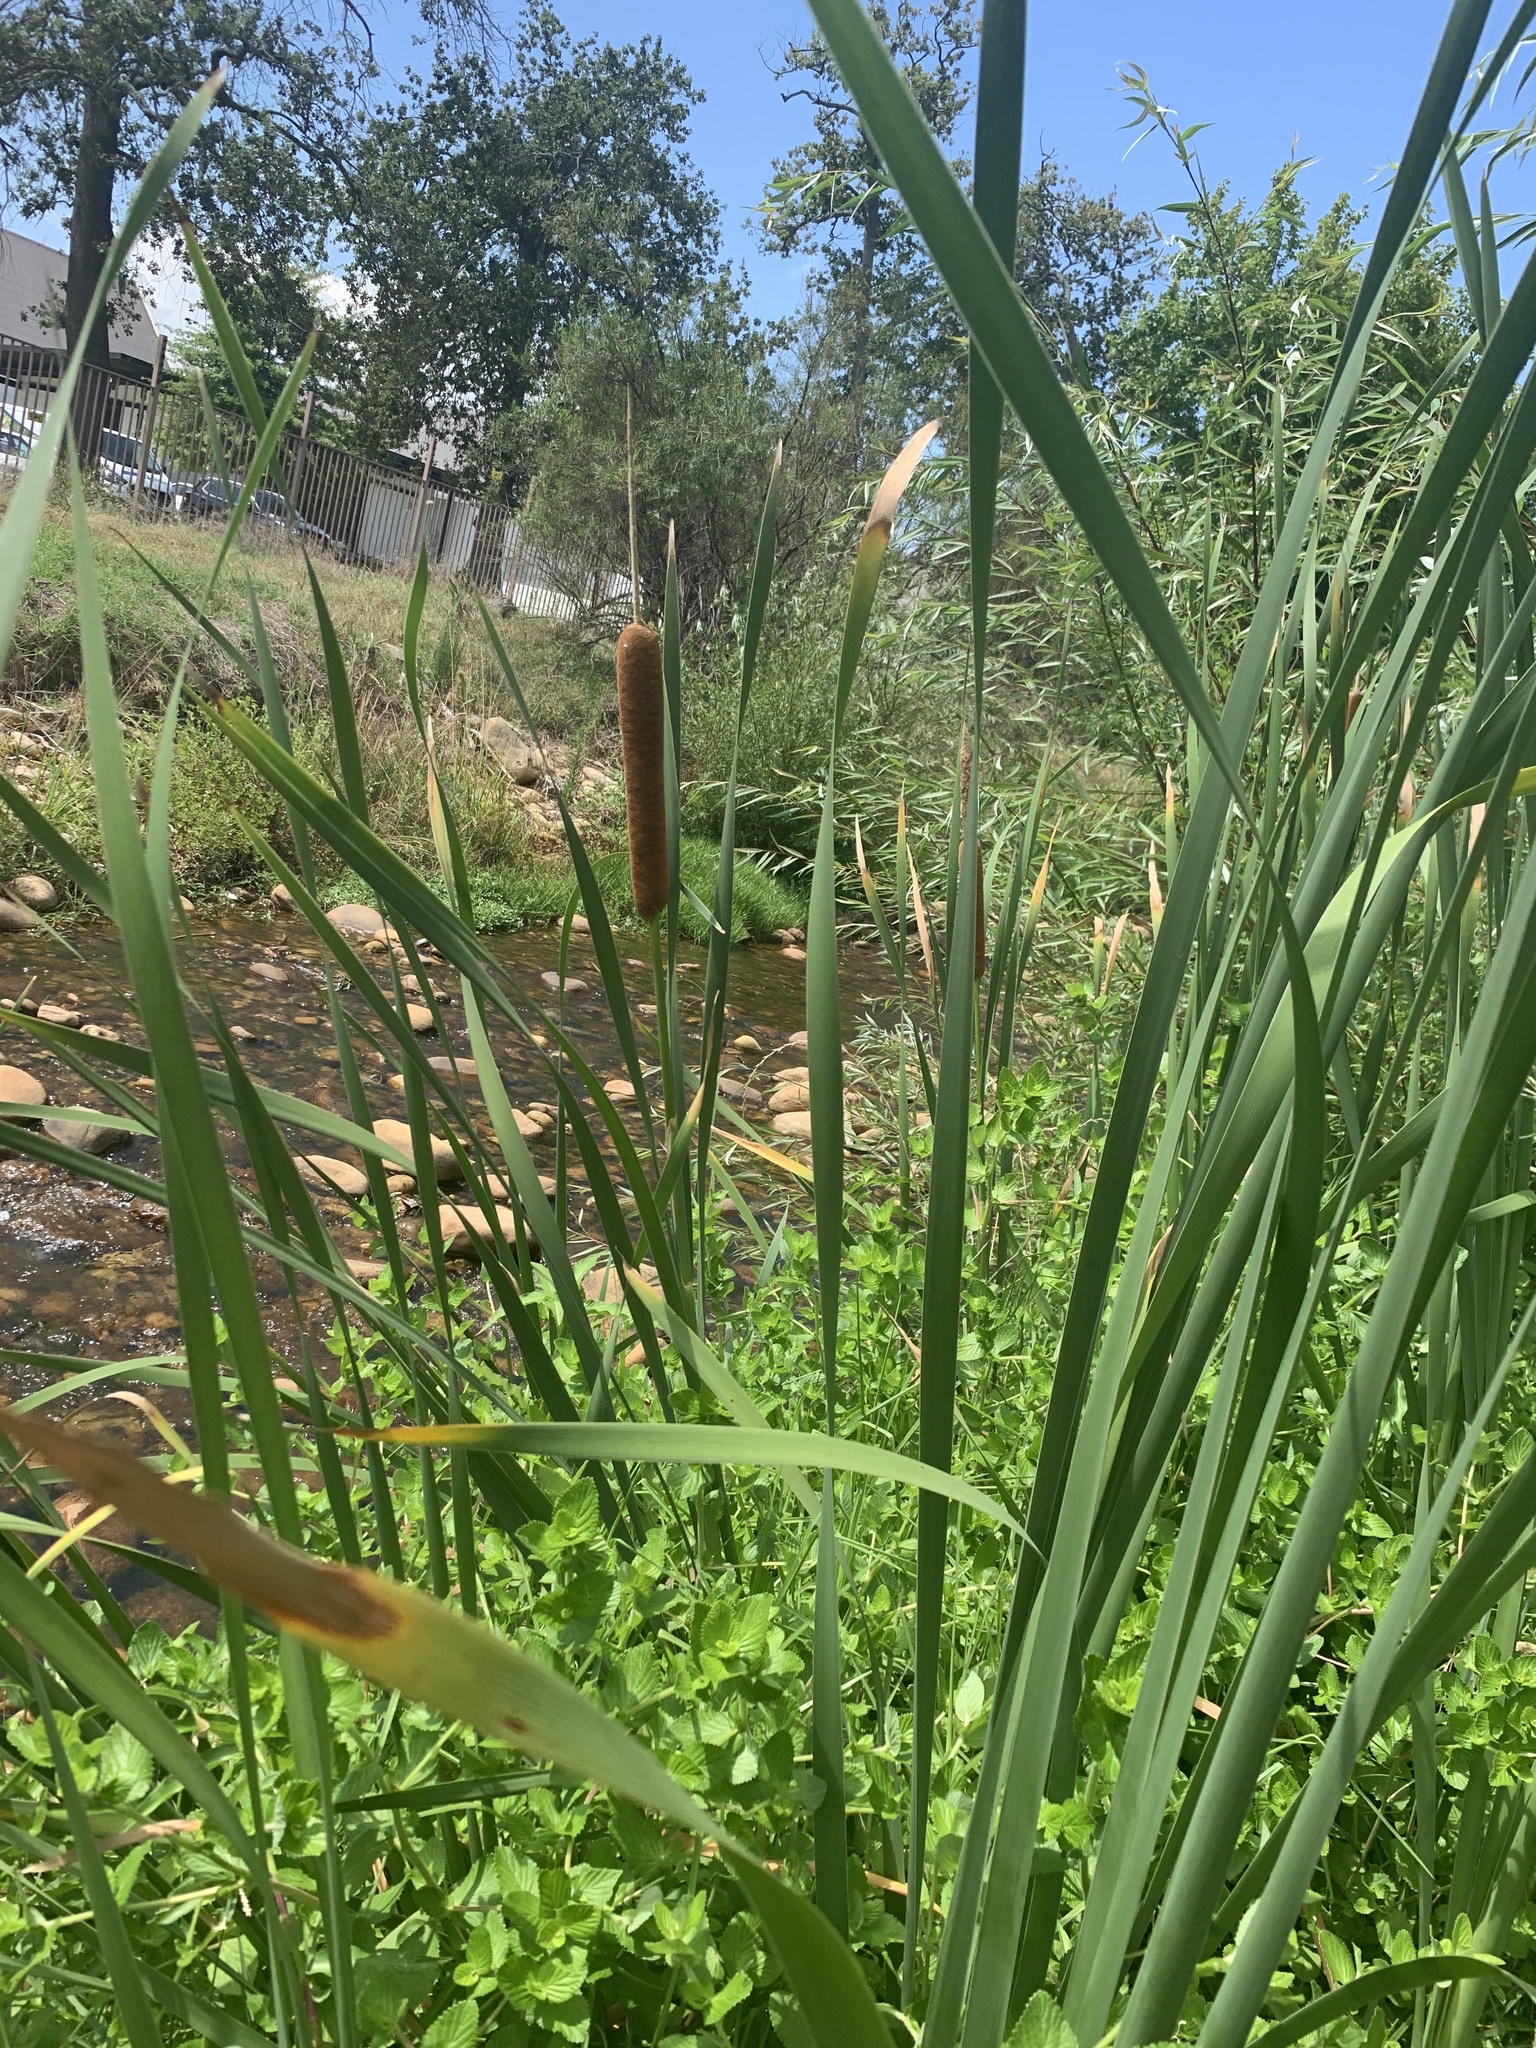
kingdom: Plantae
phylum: Tracheophyta
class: Liliopsida
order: Poales
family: Typhaceae
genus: Typha
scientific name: Typha capensis
